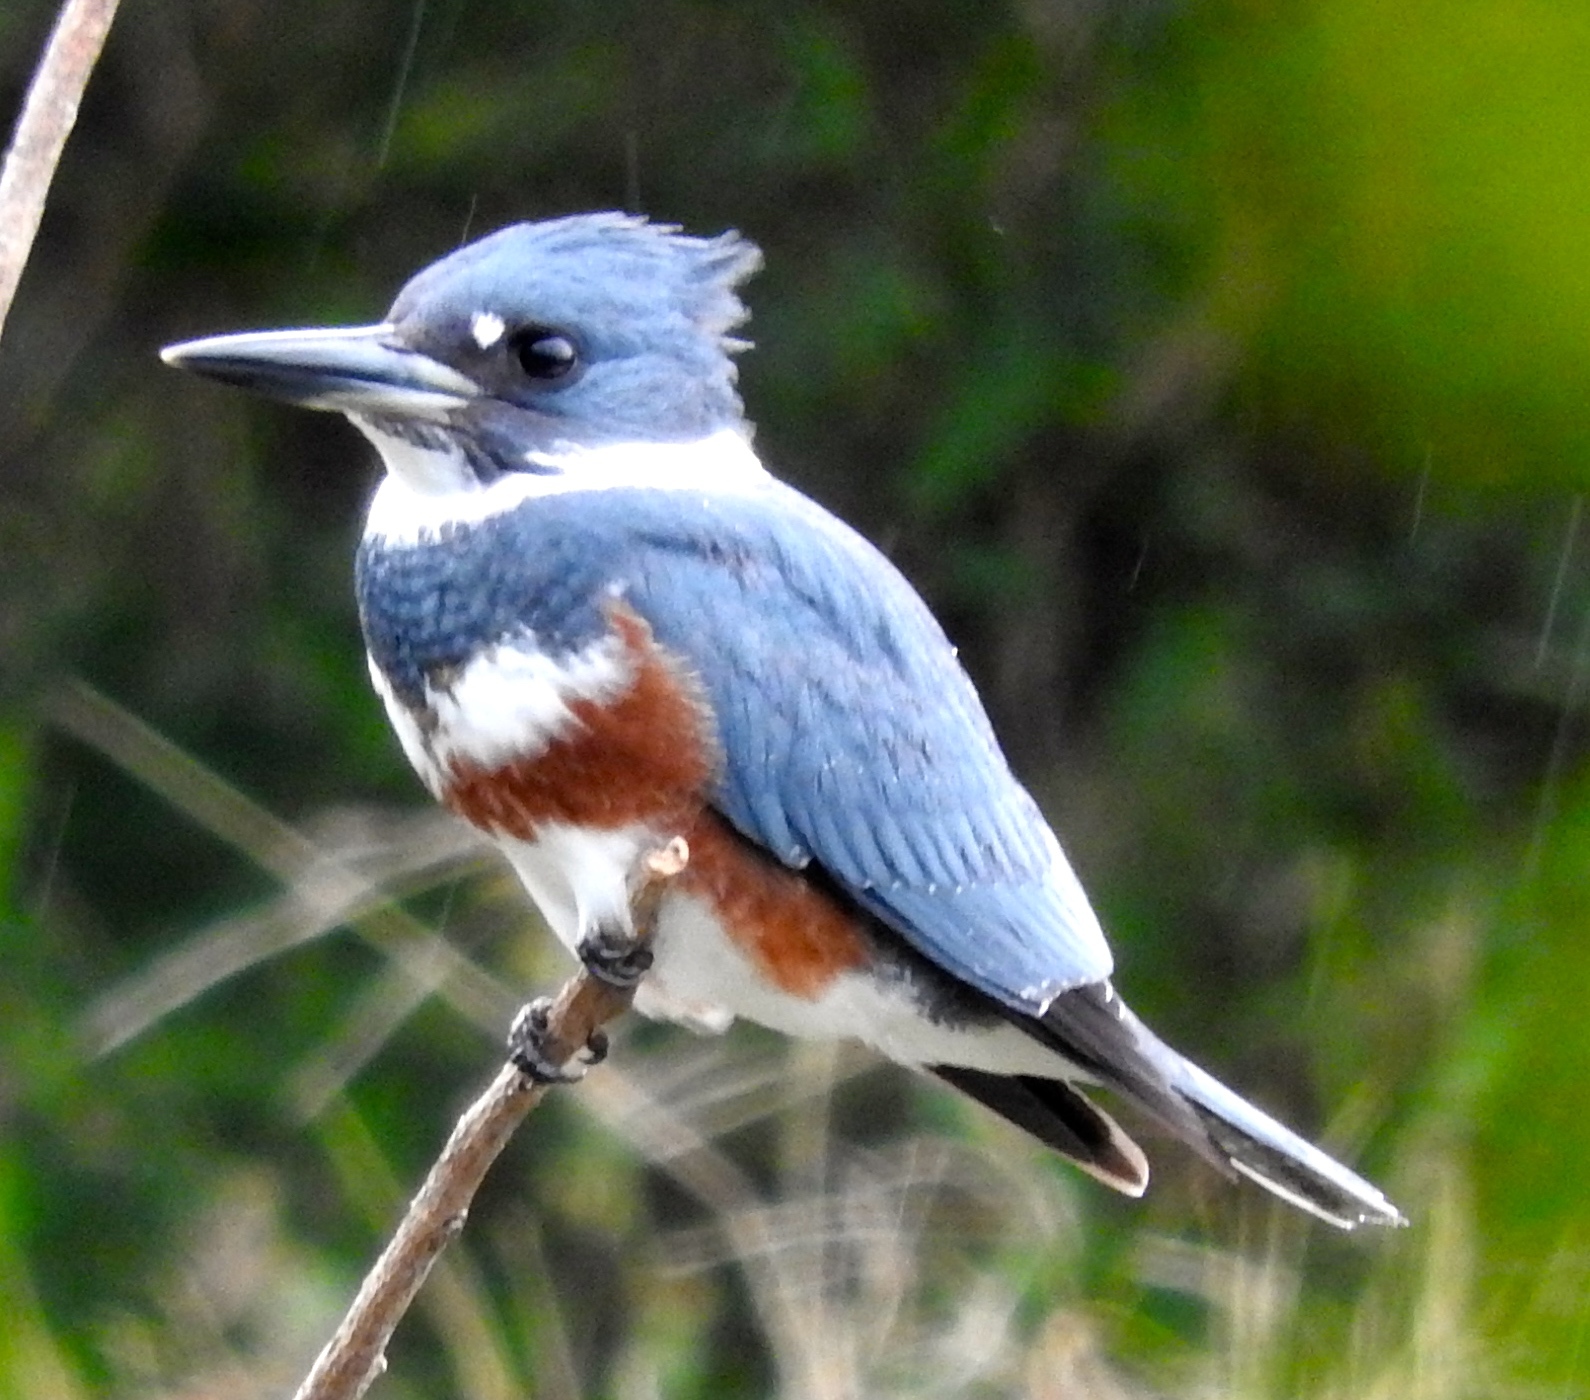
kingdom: Animalia
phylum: Chordata
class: Aves
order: Coraciiformes
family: Alcedinidae
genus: Megaceryle
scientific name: Megaceryle alcyon
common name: Belted kingfisher
